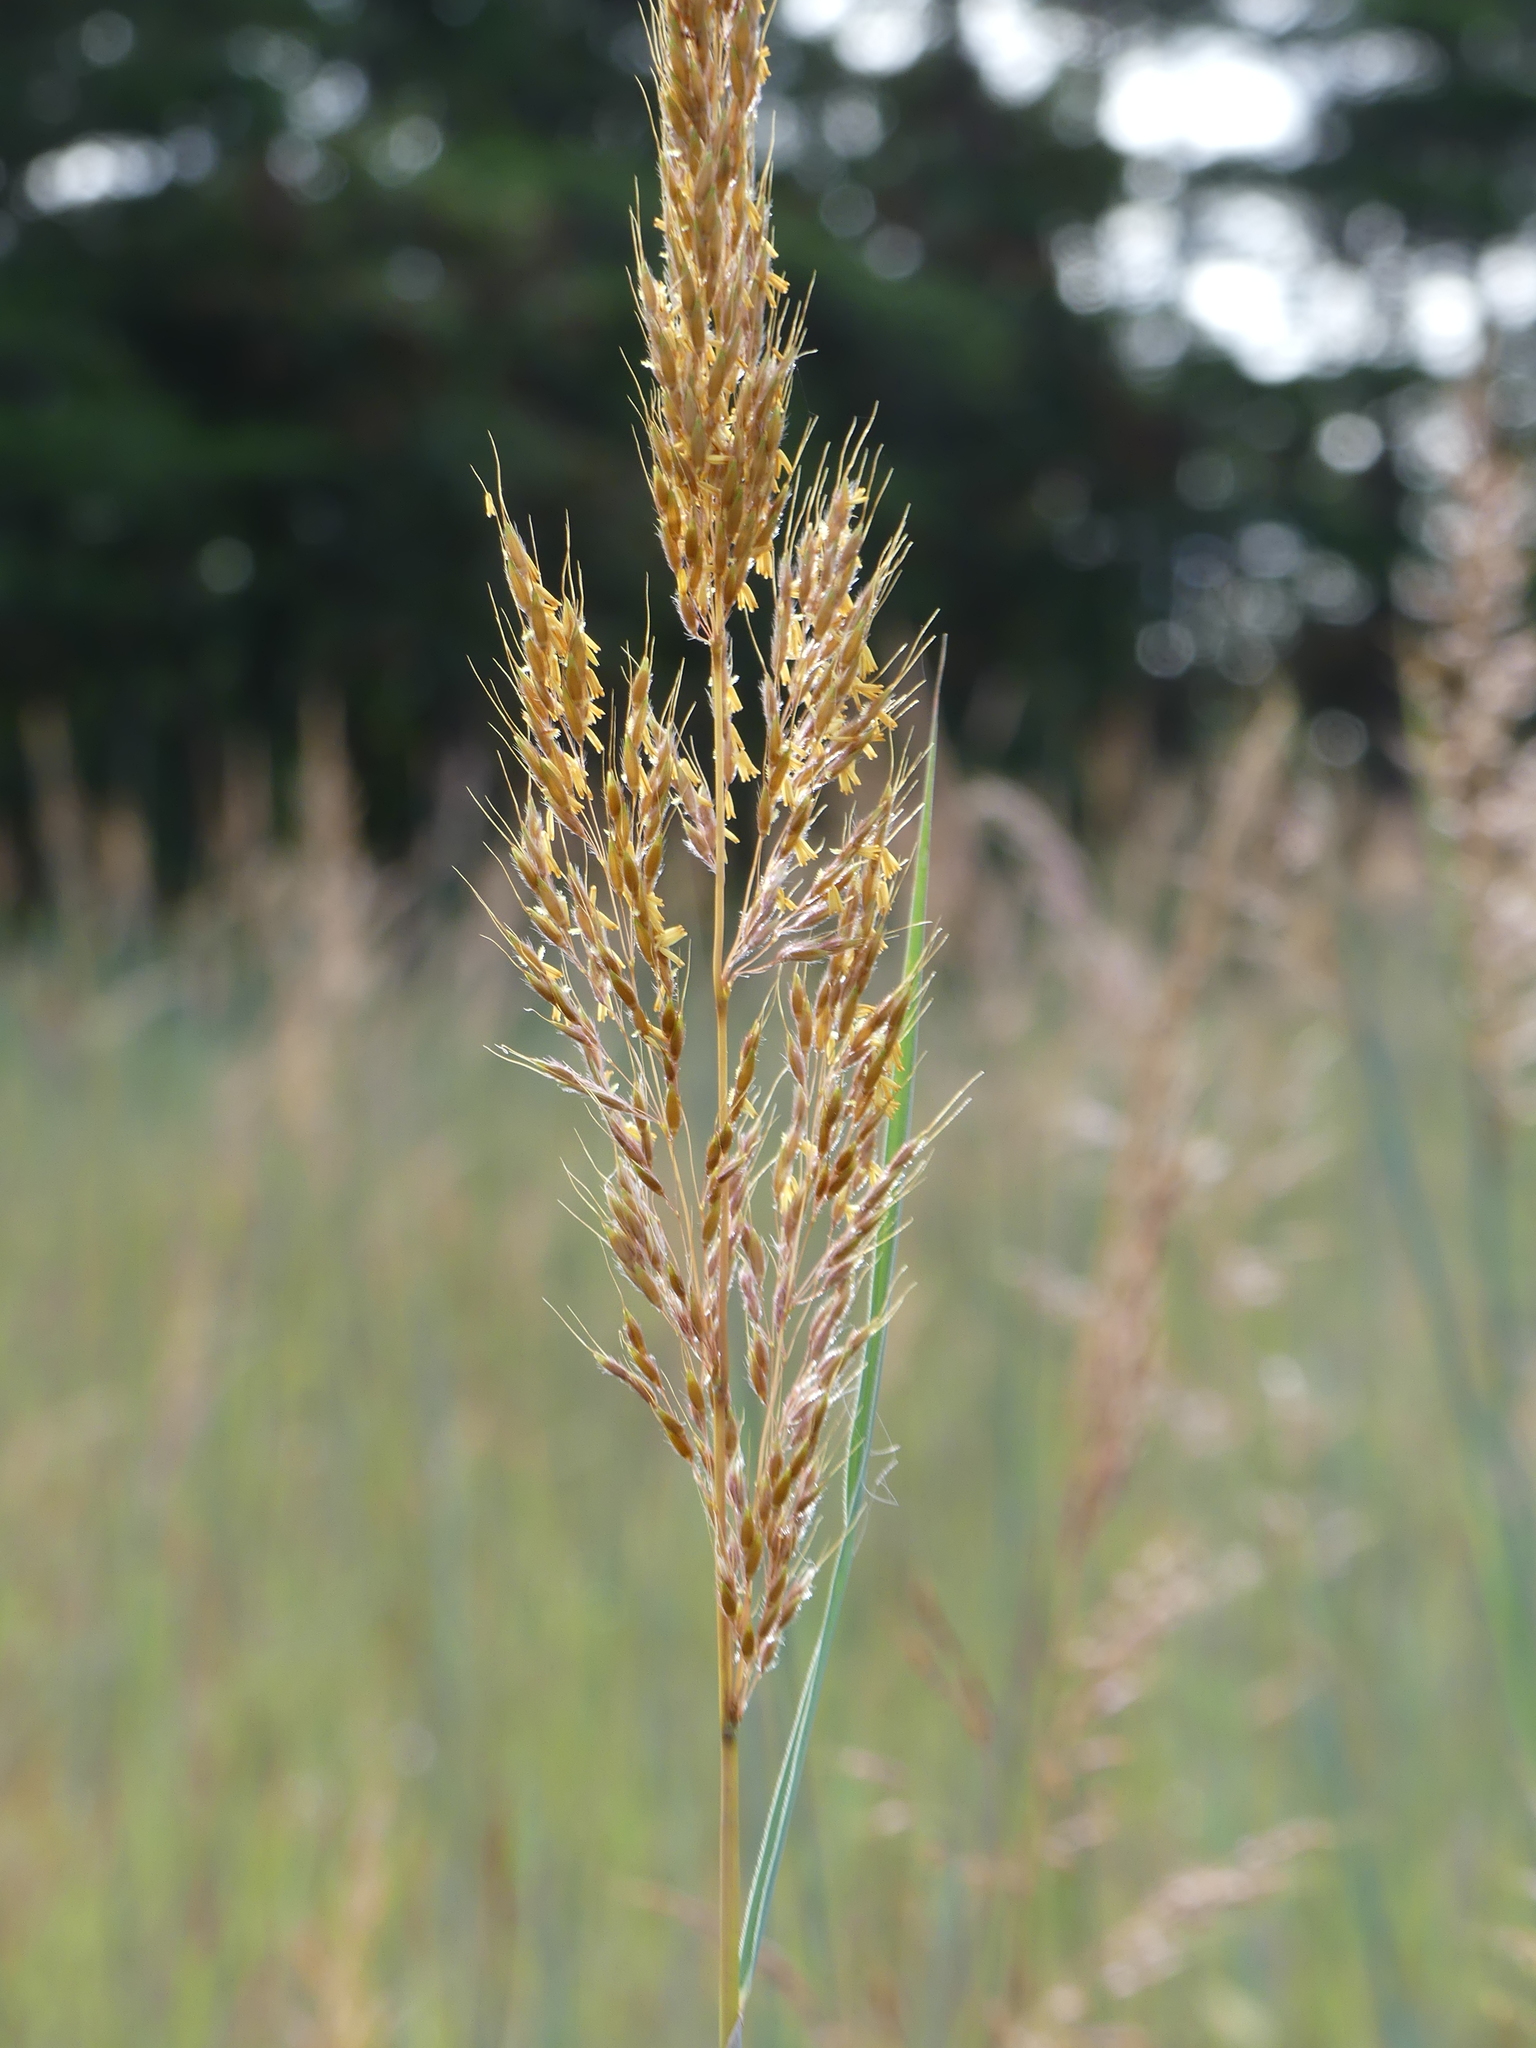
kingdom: Plantae
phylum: Tracheophyta
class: Liliopsida
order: Poales
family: Poaceae
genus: Sorghastrum
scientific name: Sorghastrum nutans
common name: Indian grass
